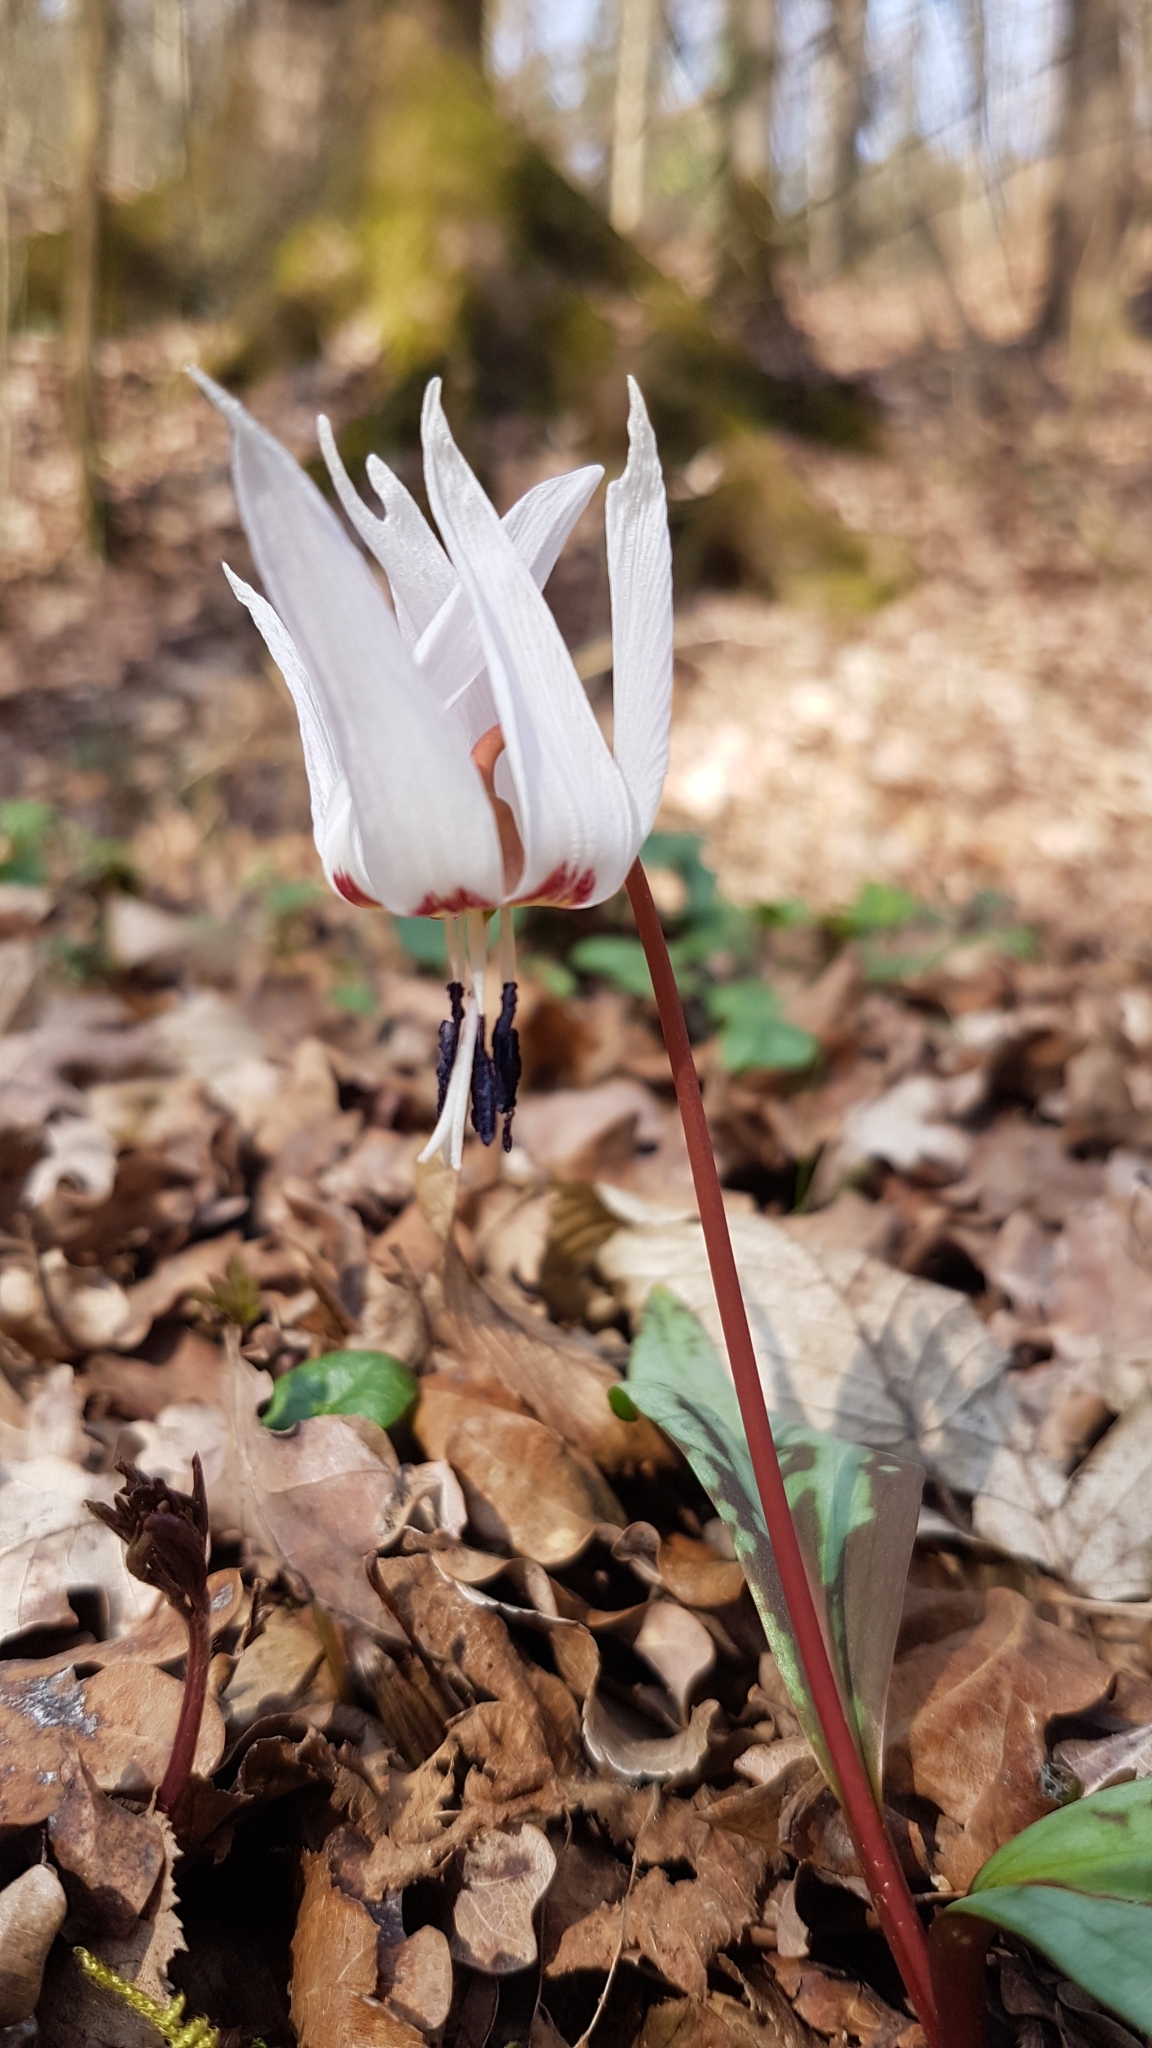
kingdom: Plantae
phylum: Tracheophyta
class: Liliopsida
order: Liliales
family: Liliaceae
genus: Erythronium
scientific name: Erythronium dens-canis
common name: Dog's-tooth-violet
